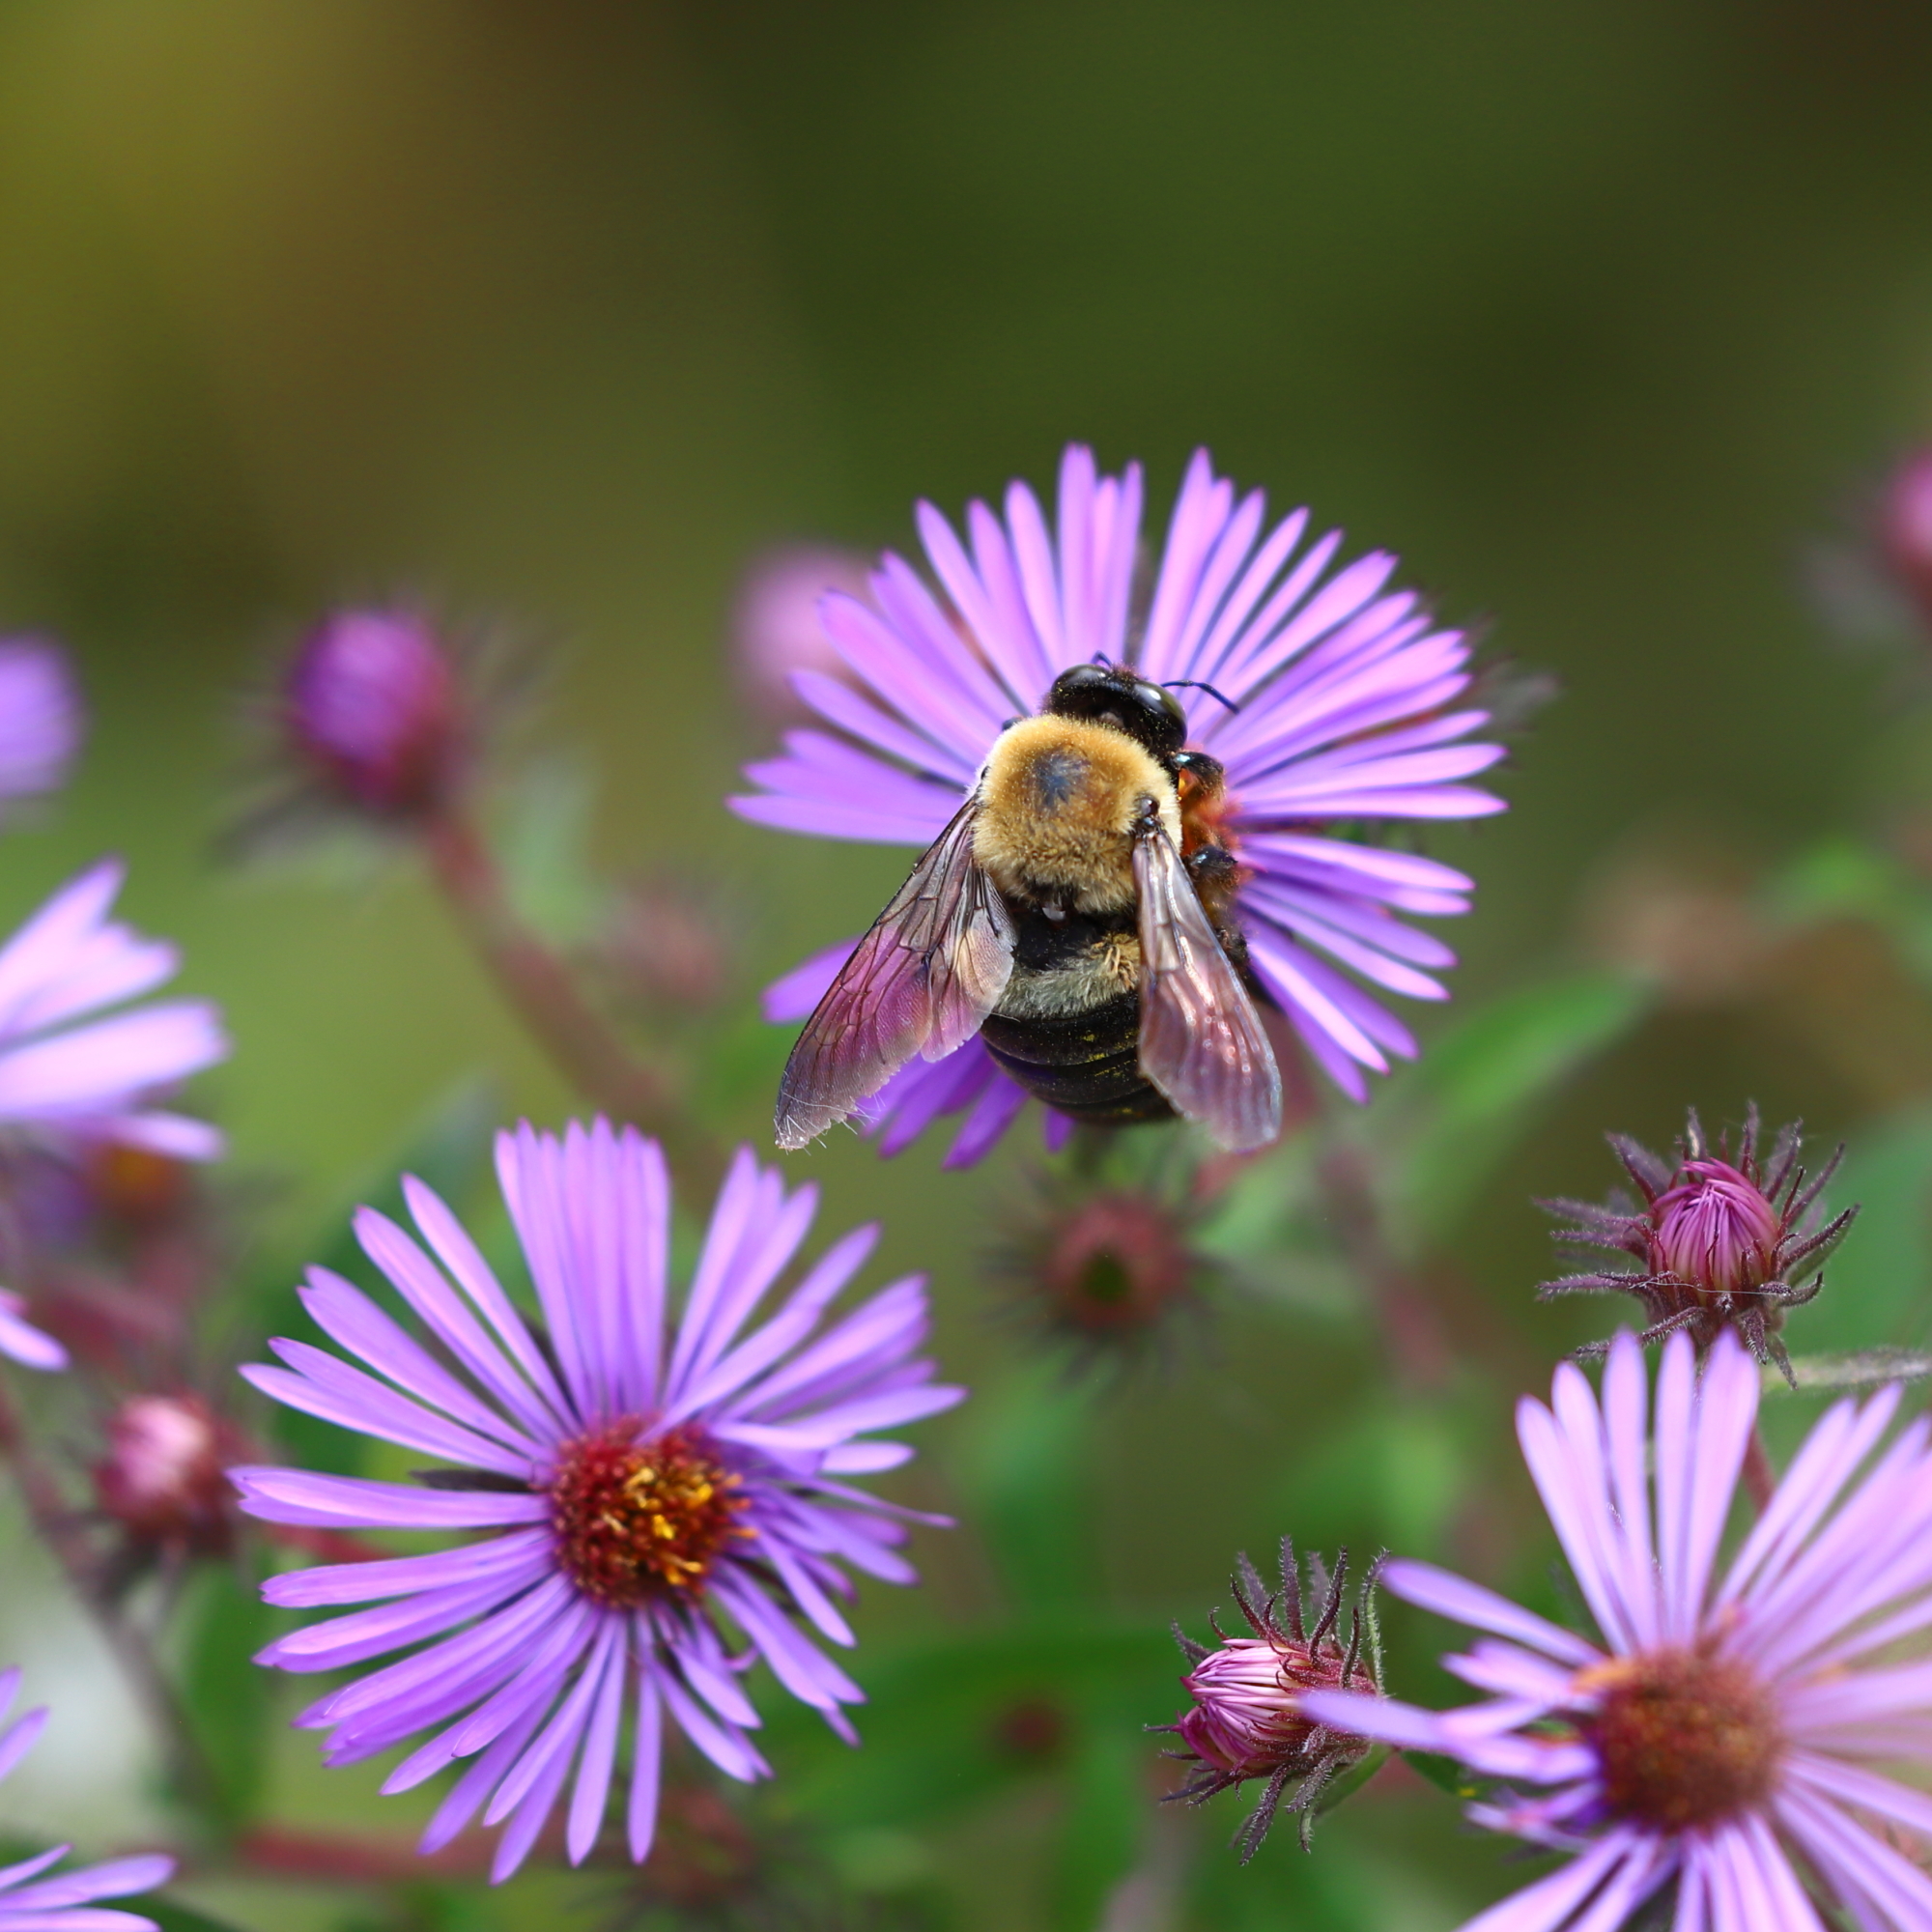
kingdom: Animalia
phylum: Arthropoda
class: Insecta
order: Hymenoptera
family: Apidae
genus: Xylocopa
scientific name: Xylocopa virginica
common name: Carpenter bee
